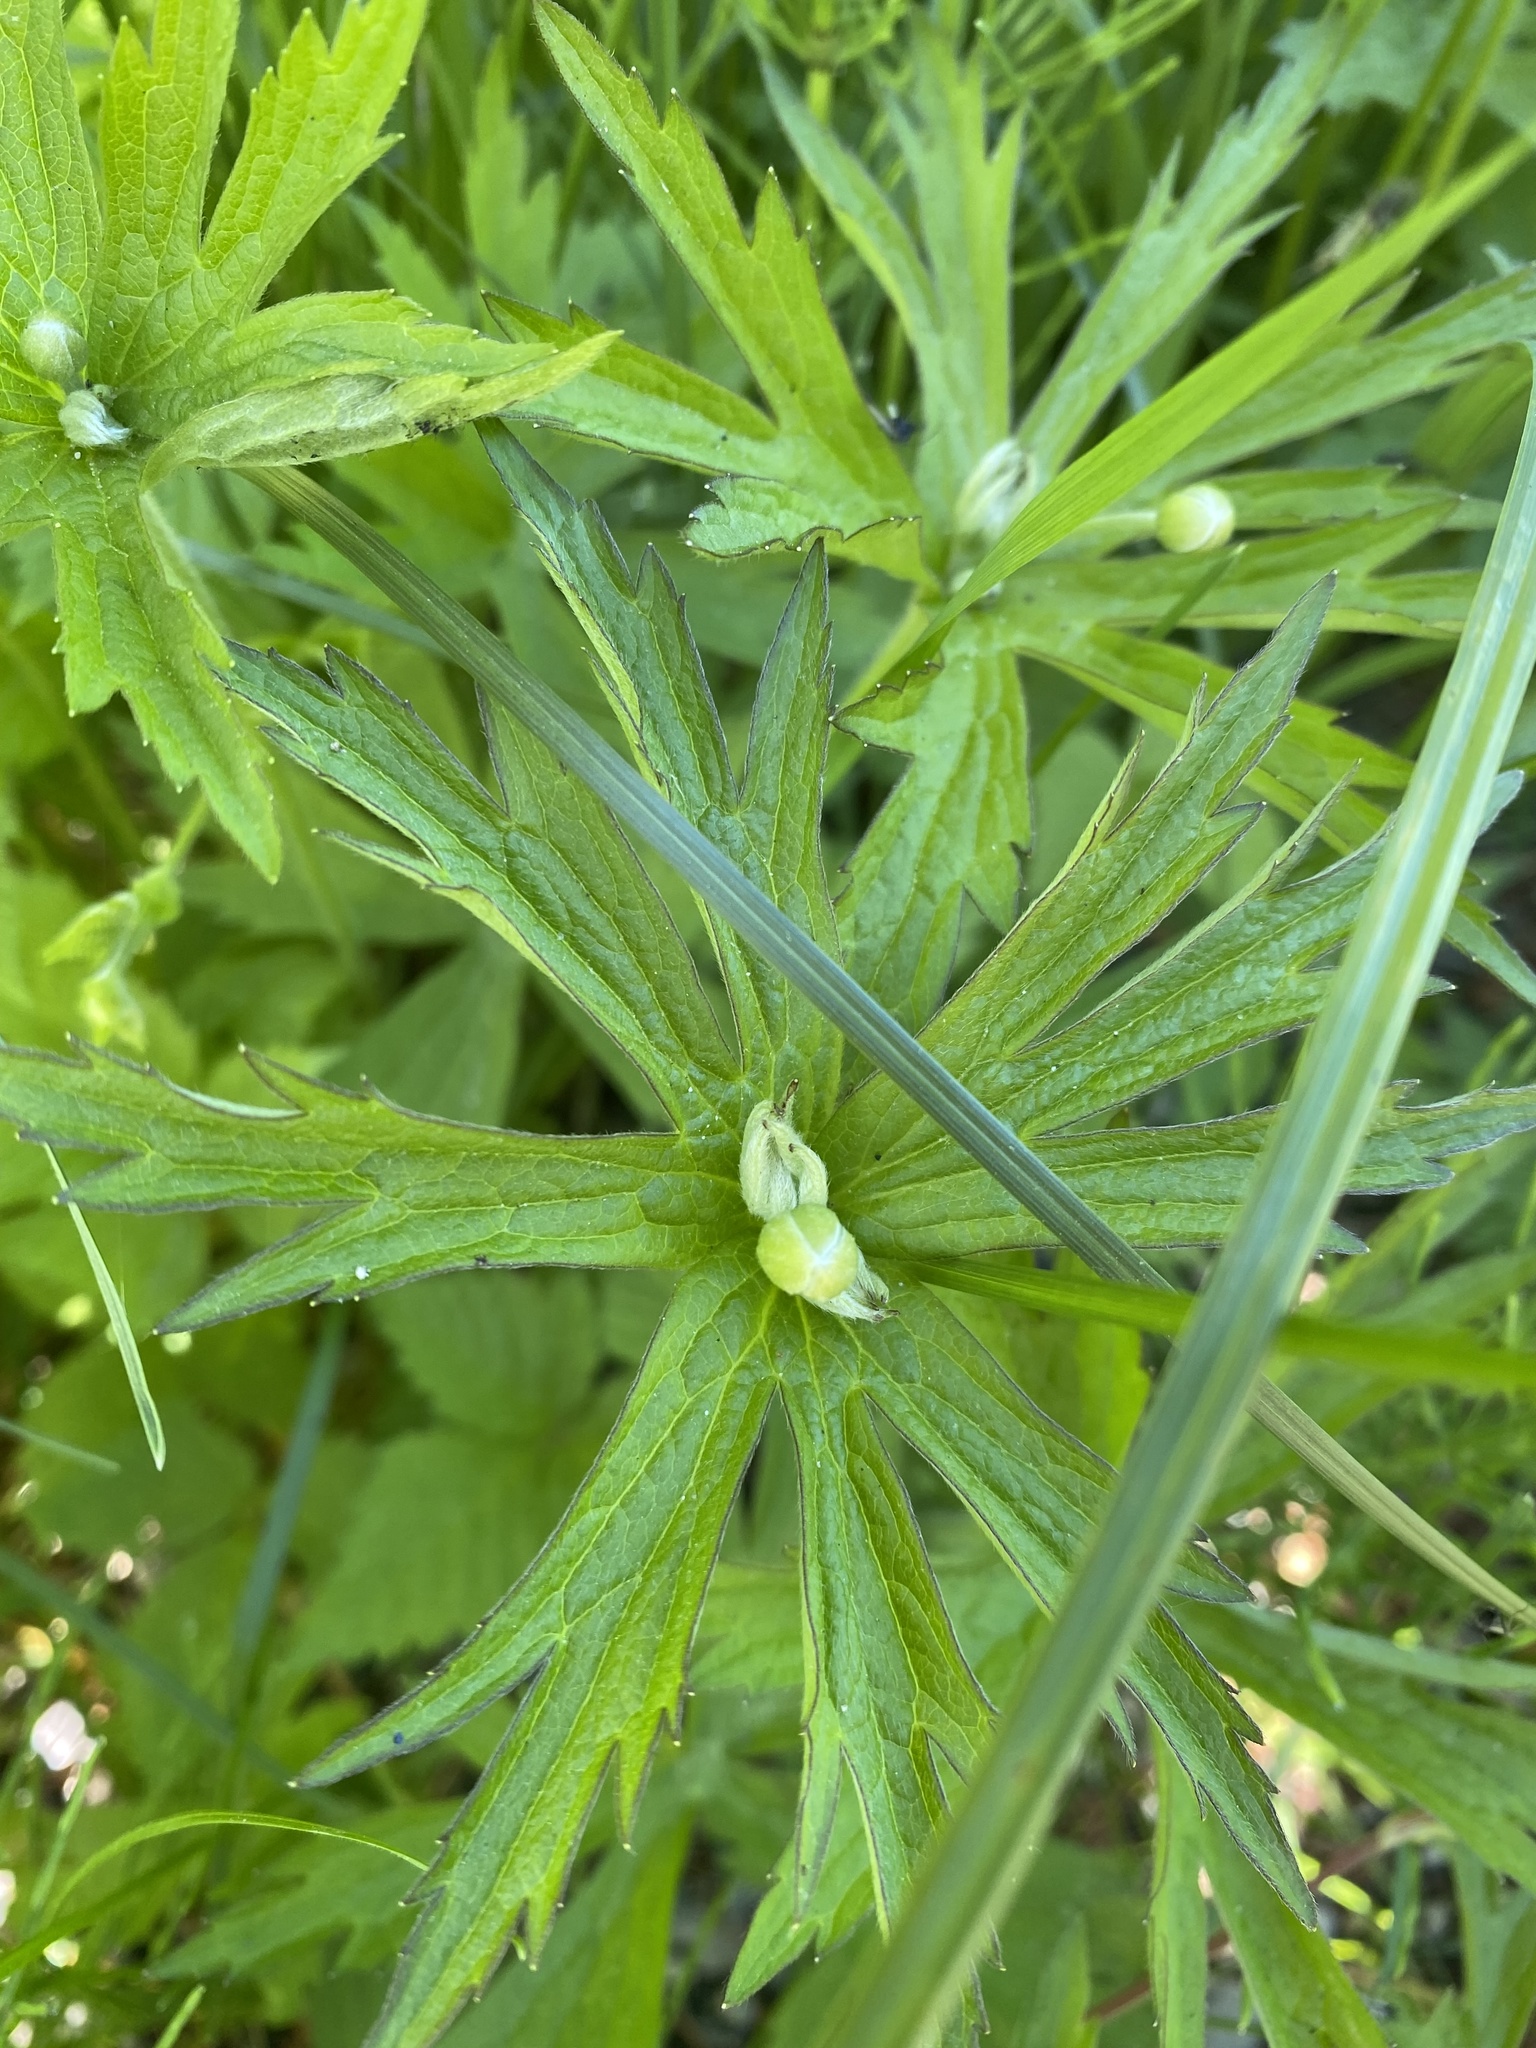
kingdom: Plantae
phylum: Tracheophyta
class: Magnoliopsida
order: Ranunculales
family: Ranunculaceae
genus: Anemonastrum
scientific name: Anemonastrum canadense
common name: Canada anemone
